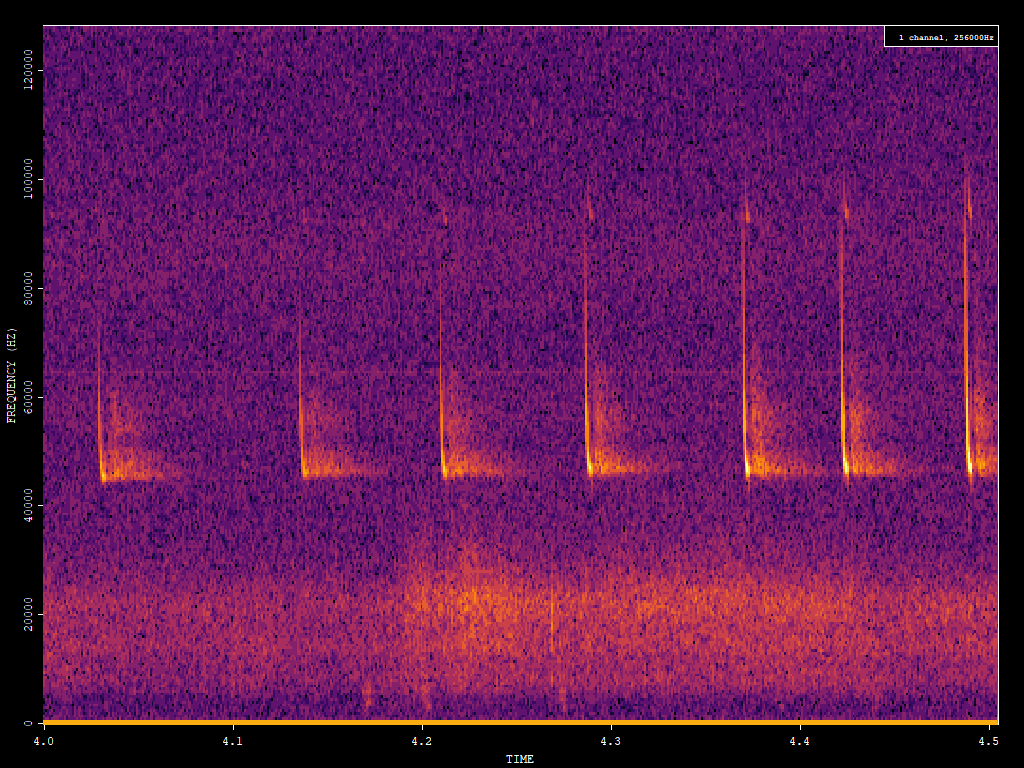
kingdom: Animalia
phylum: Chordata
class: Mammalia
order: Chiroptera
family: Vespertilionidae
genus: Pipistrellus
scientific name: Pipistrellus pipistrellus
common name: Common pipistrelle
